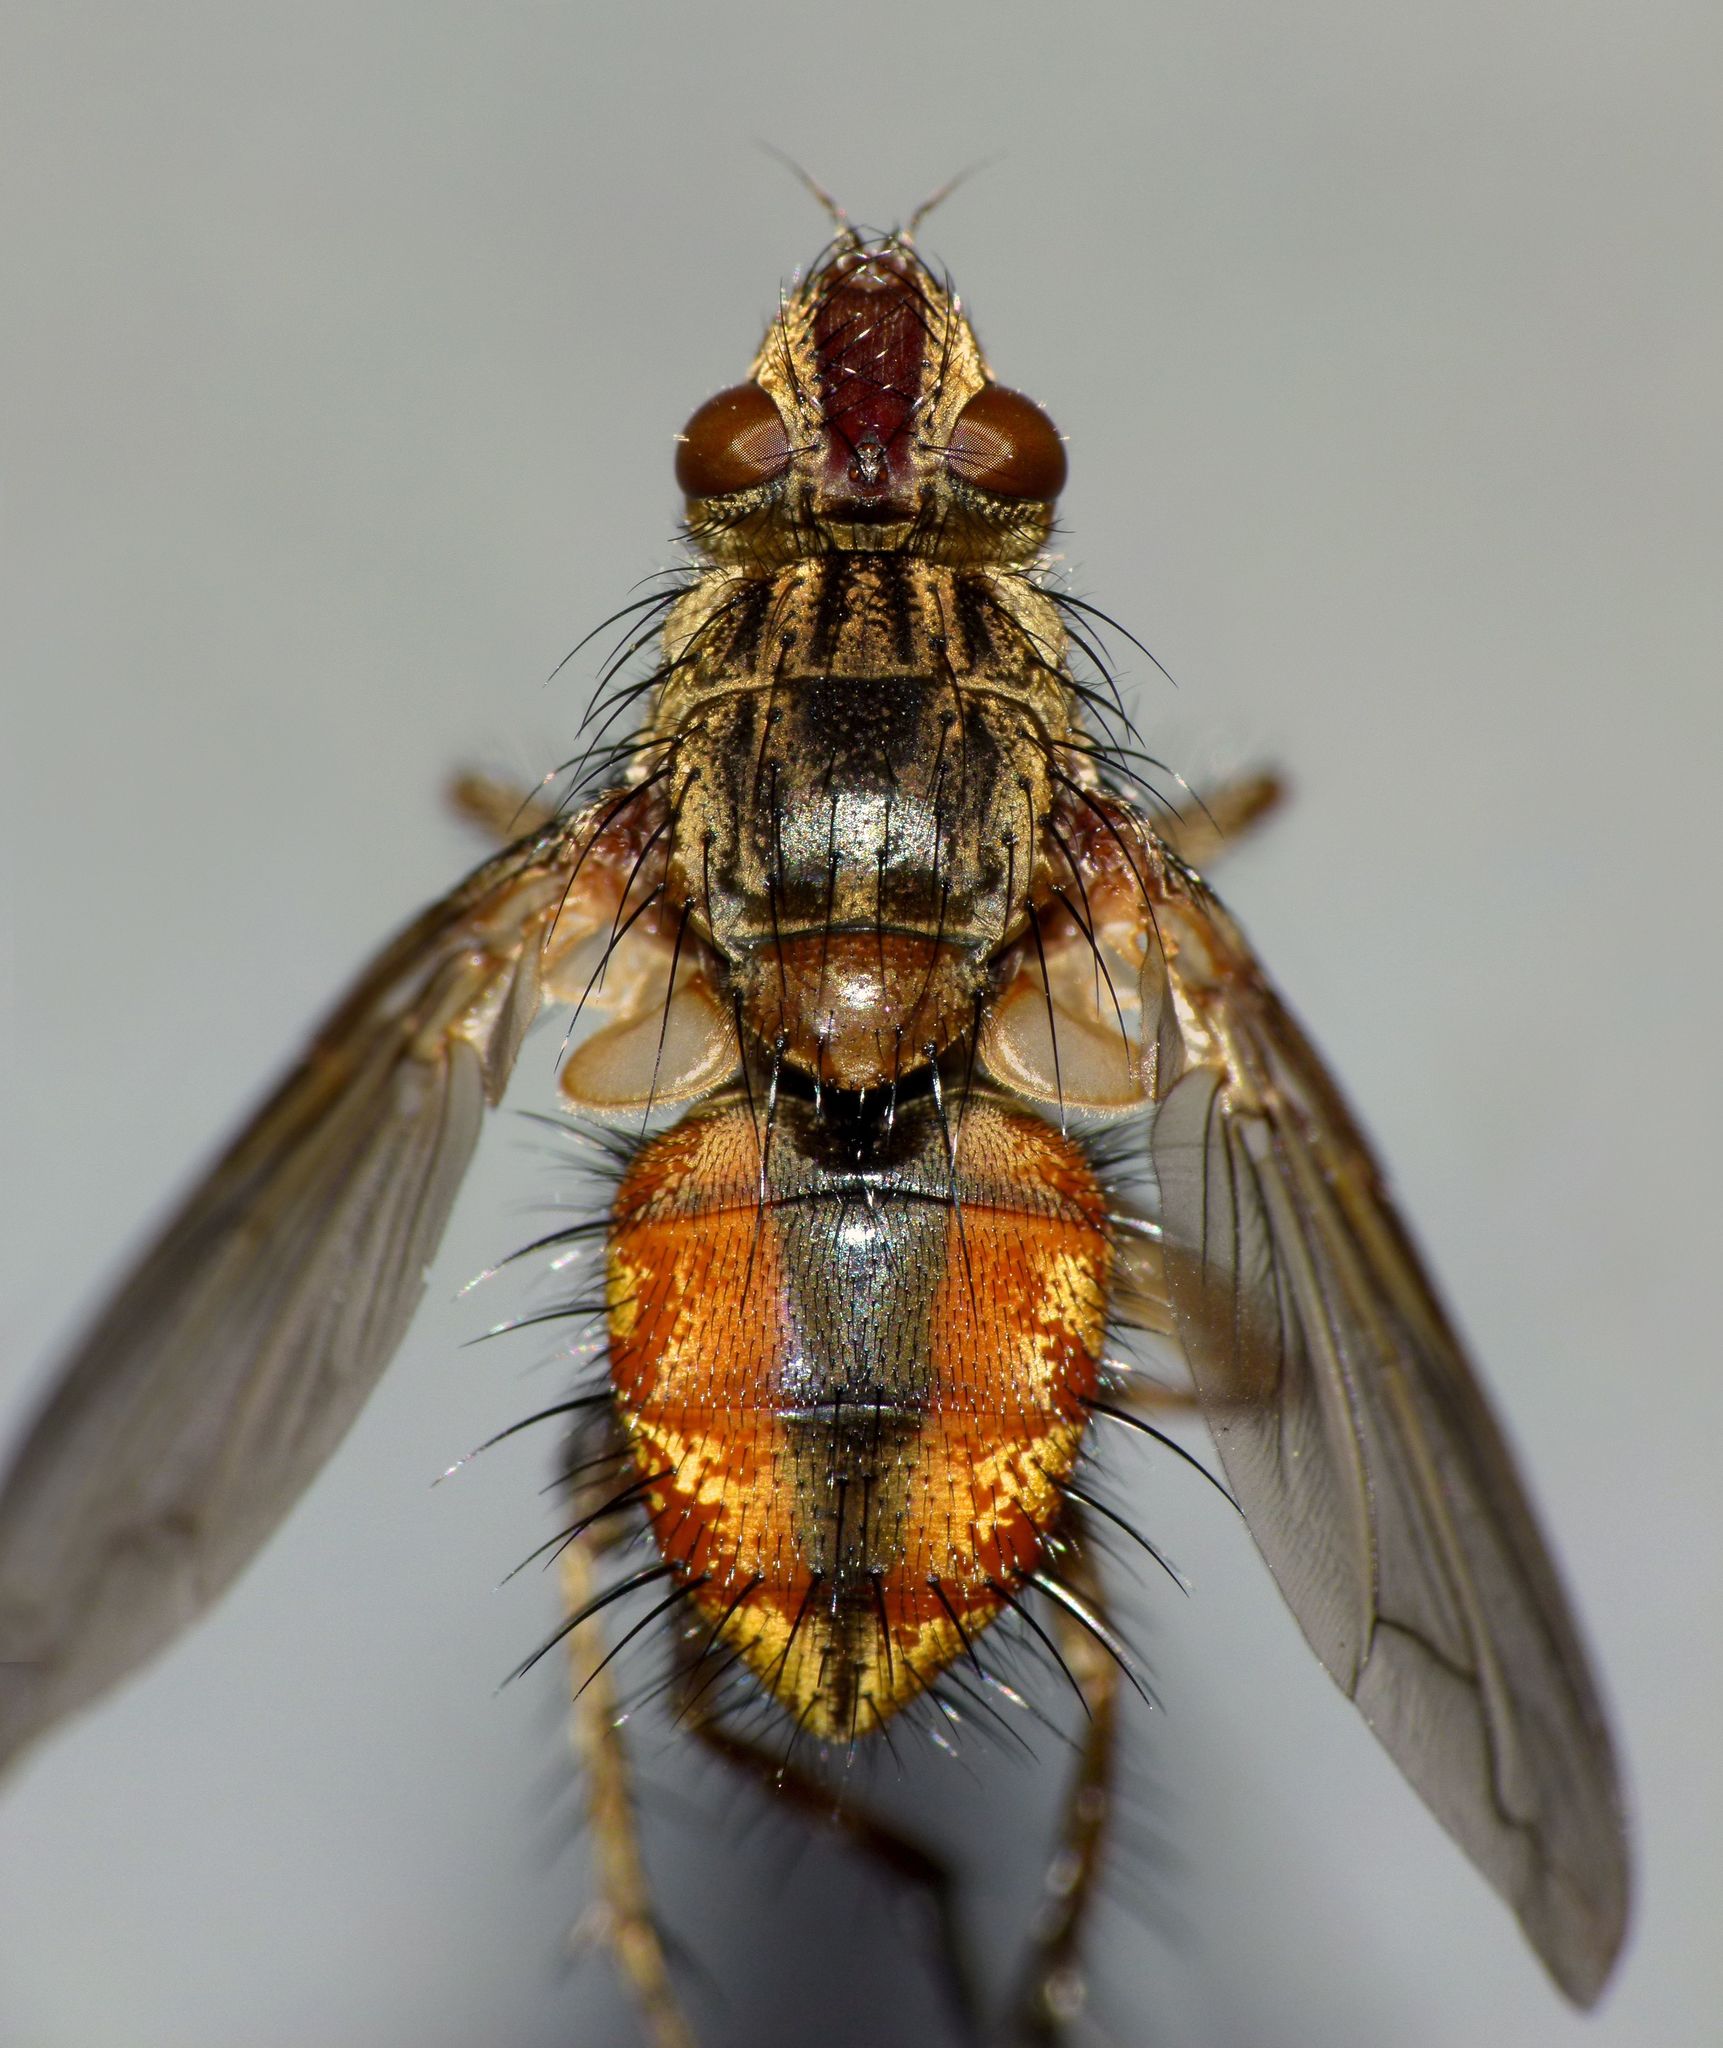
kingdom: Animalia
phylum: Arthropoda
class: Insecta
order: Diptera
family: Tachinidae
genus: Peremptor
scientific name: Peremptor kumaraensis
